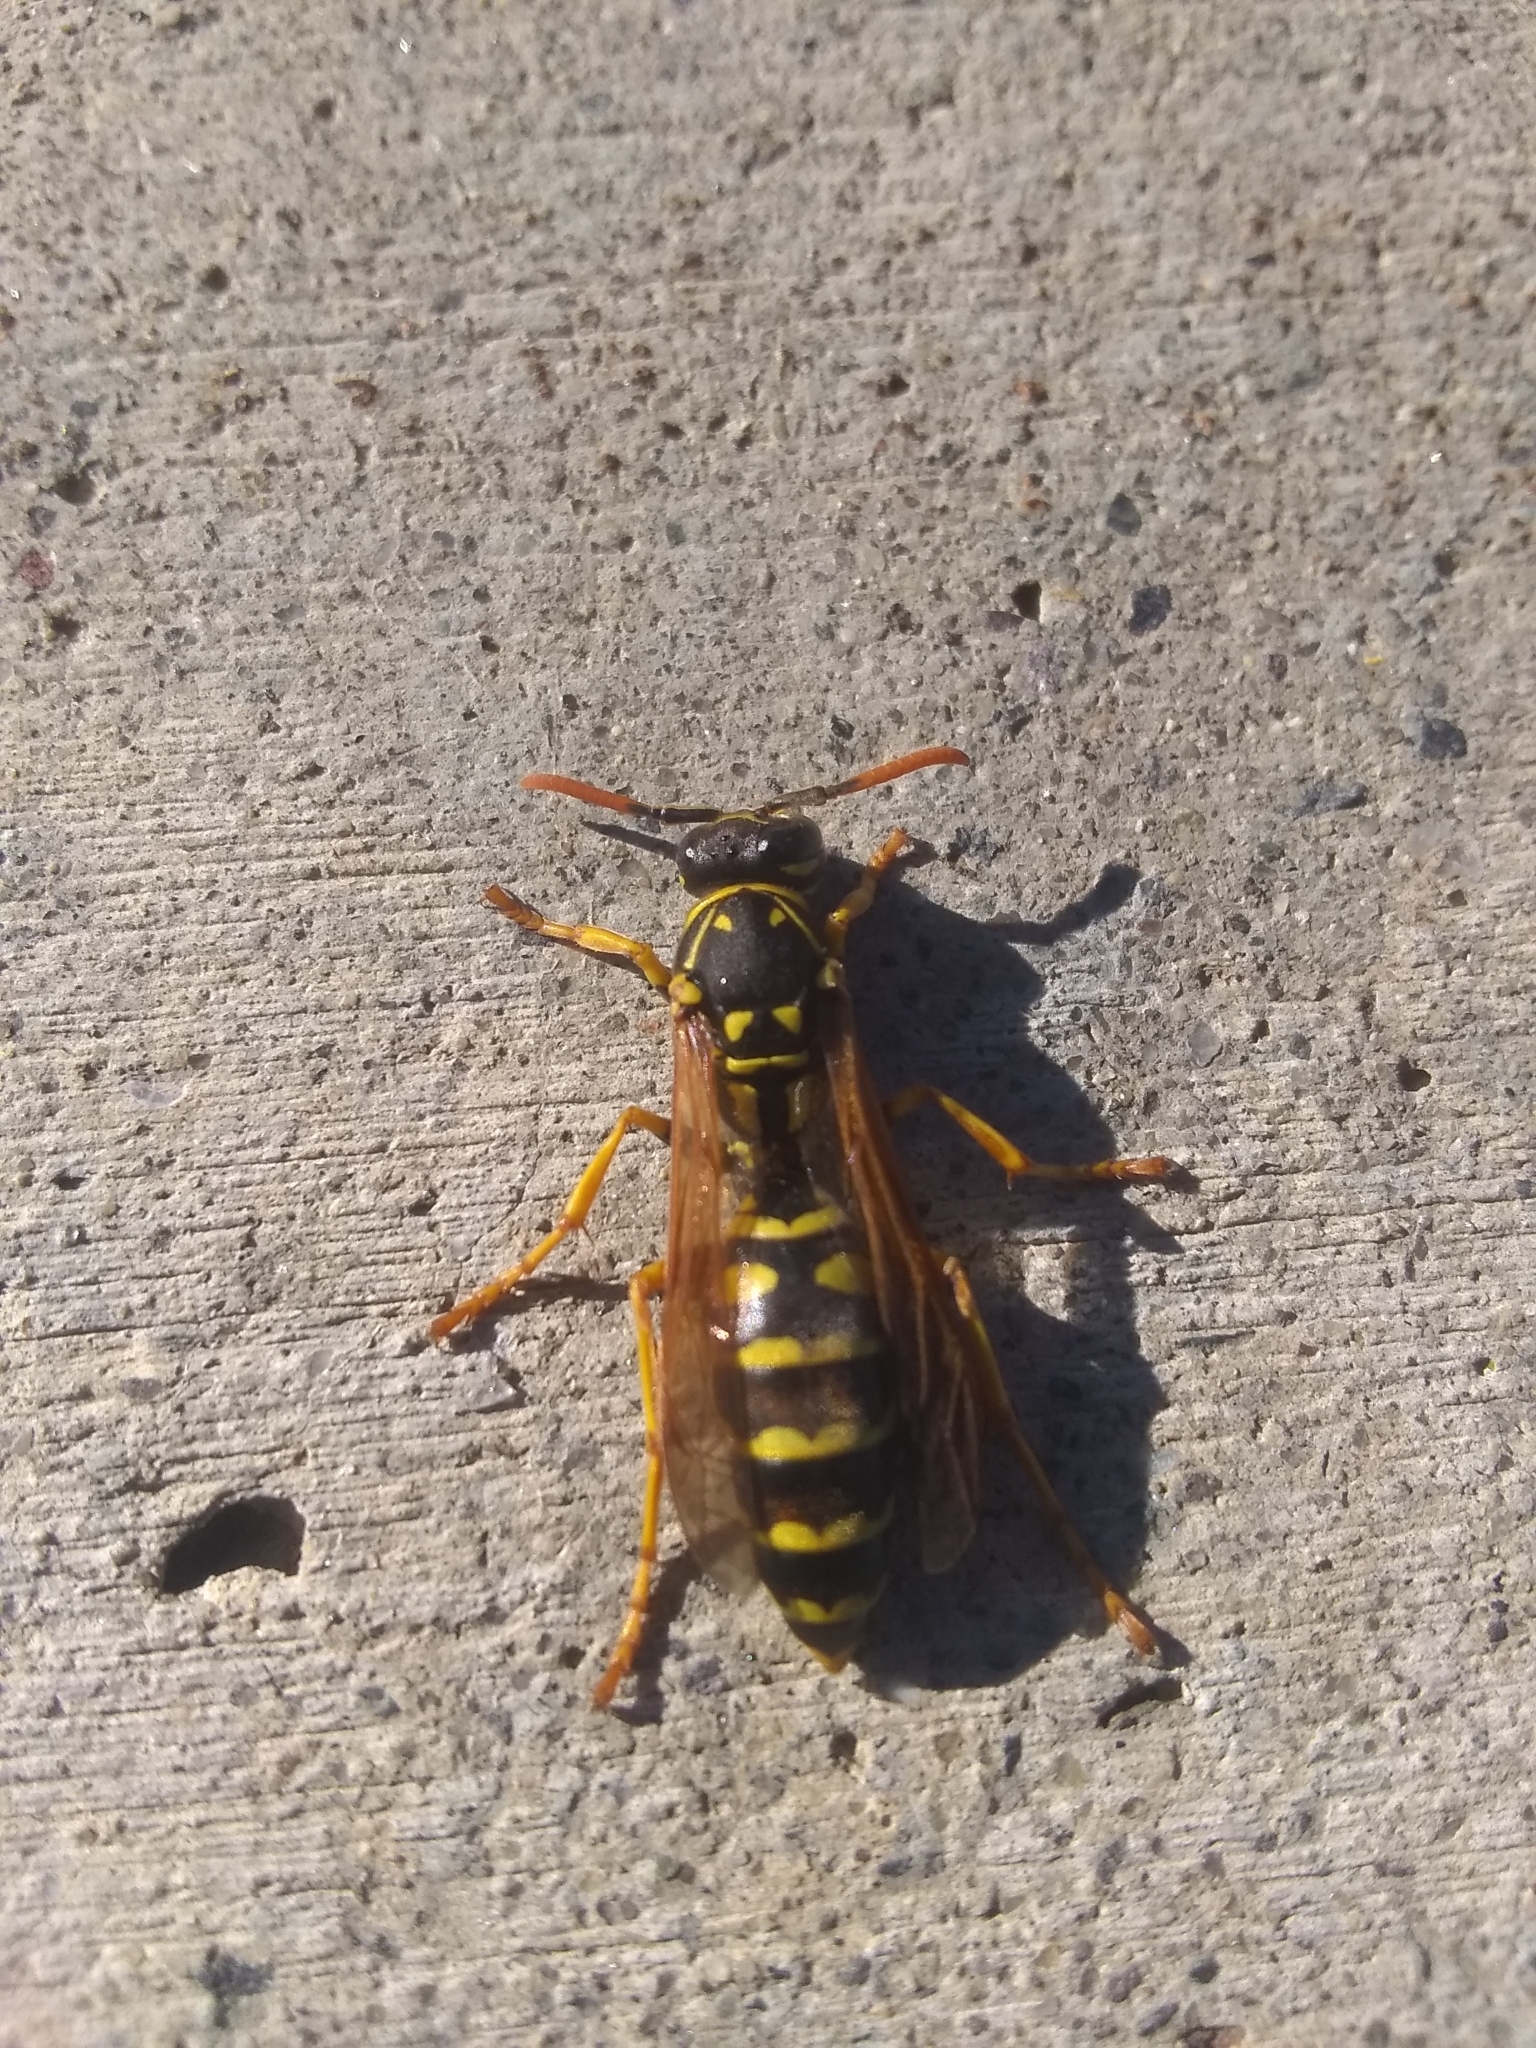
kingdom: Animalia
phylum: Arthropoda
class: Insecta
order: Hymenoptera
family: Eumenidae
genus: Polistes
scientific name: Polistes dominula
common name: Paper wasp
